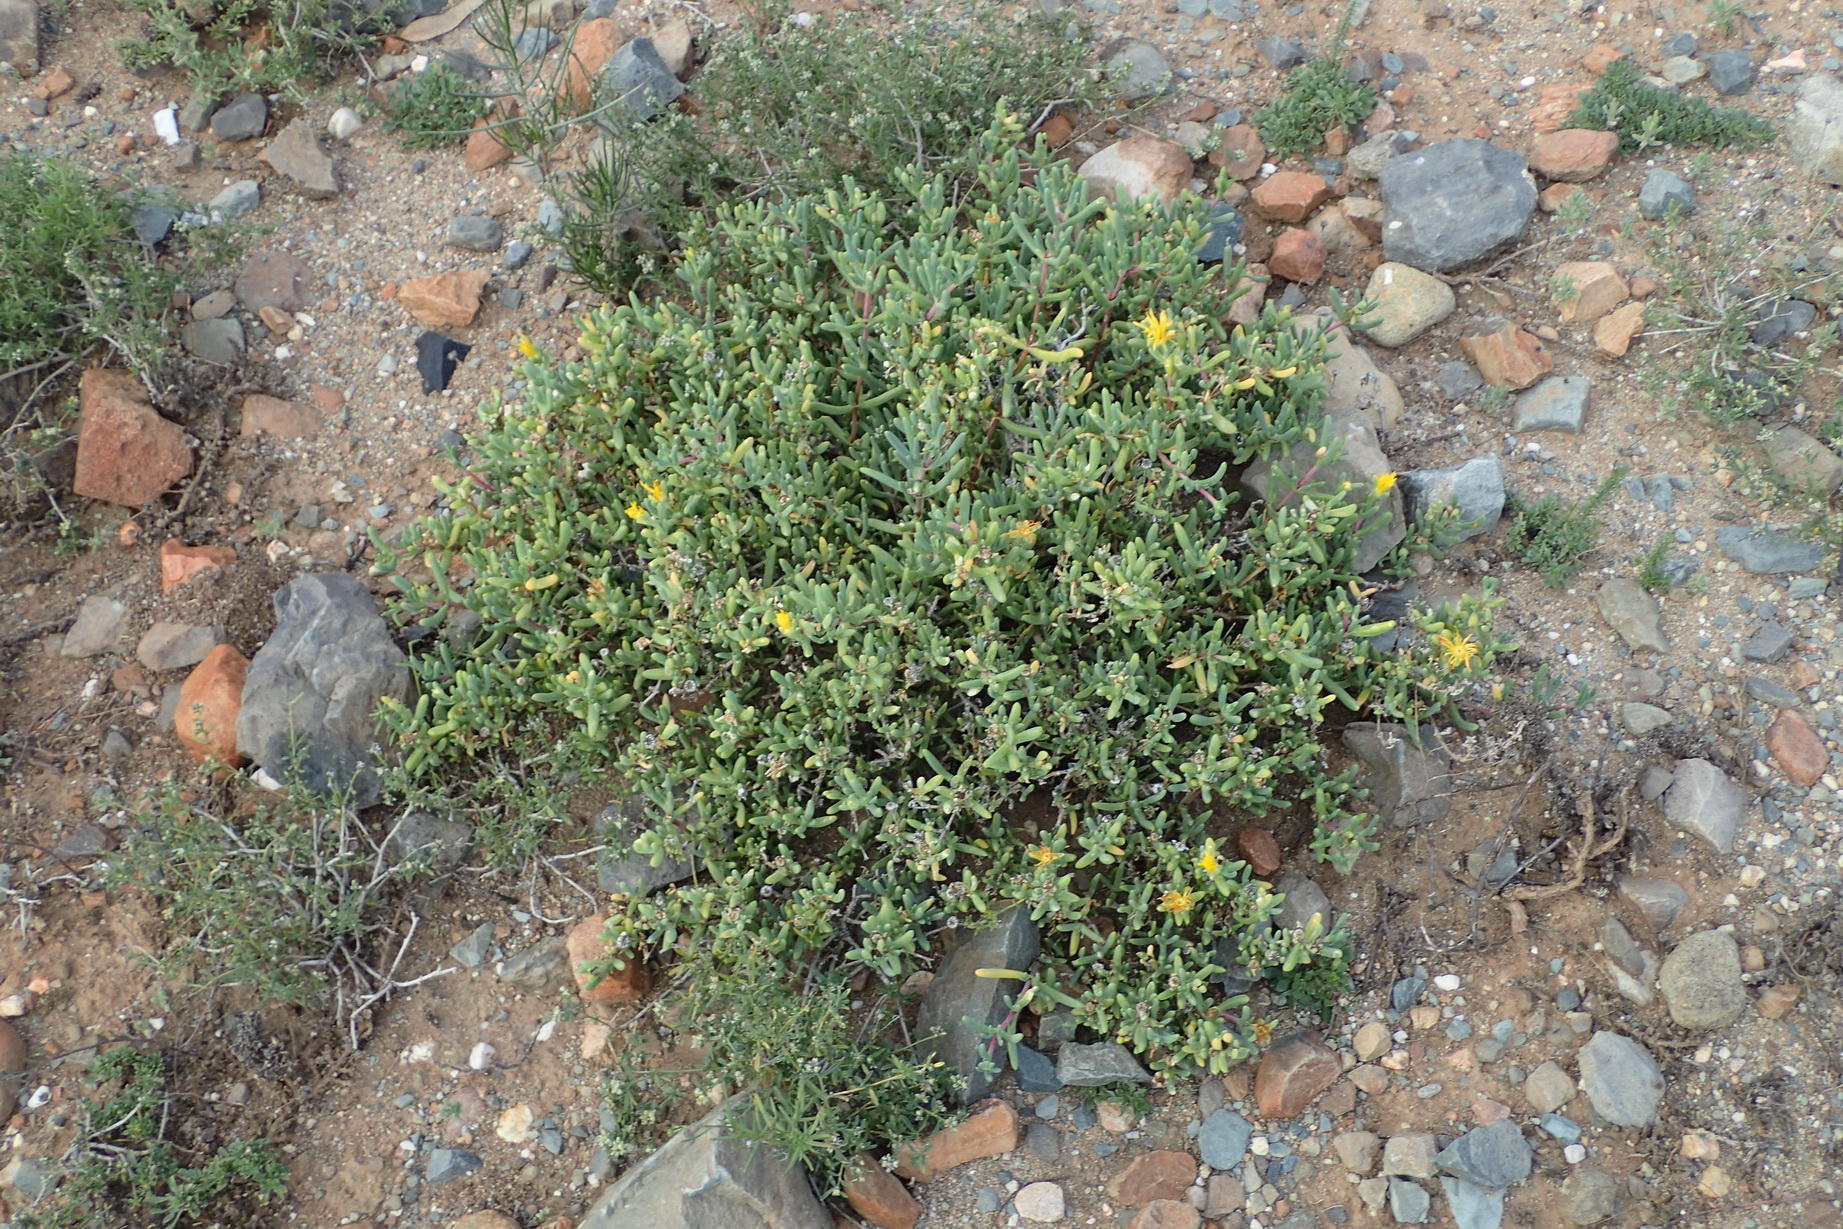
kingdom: Plantae
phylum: Tracheophyta
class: Magnoliopsida
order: Caryophyllales
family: Aizoaceae
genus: Malephora
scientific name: Malephora lutea
